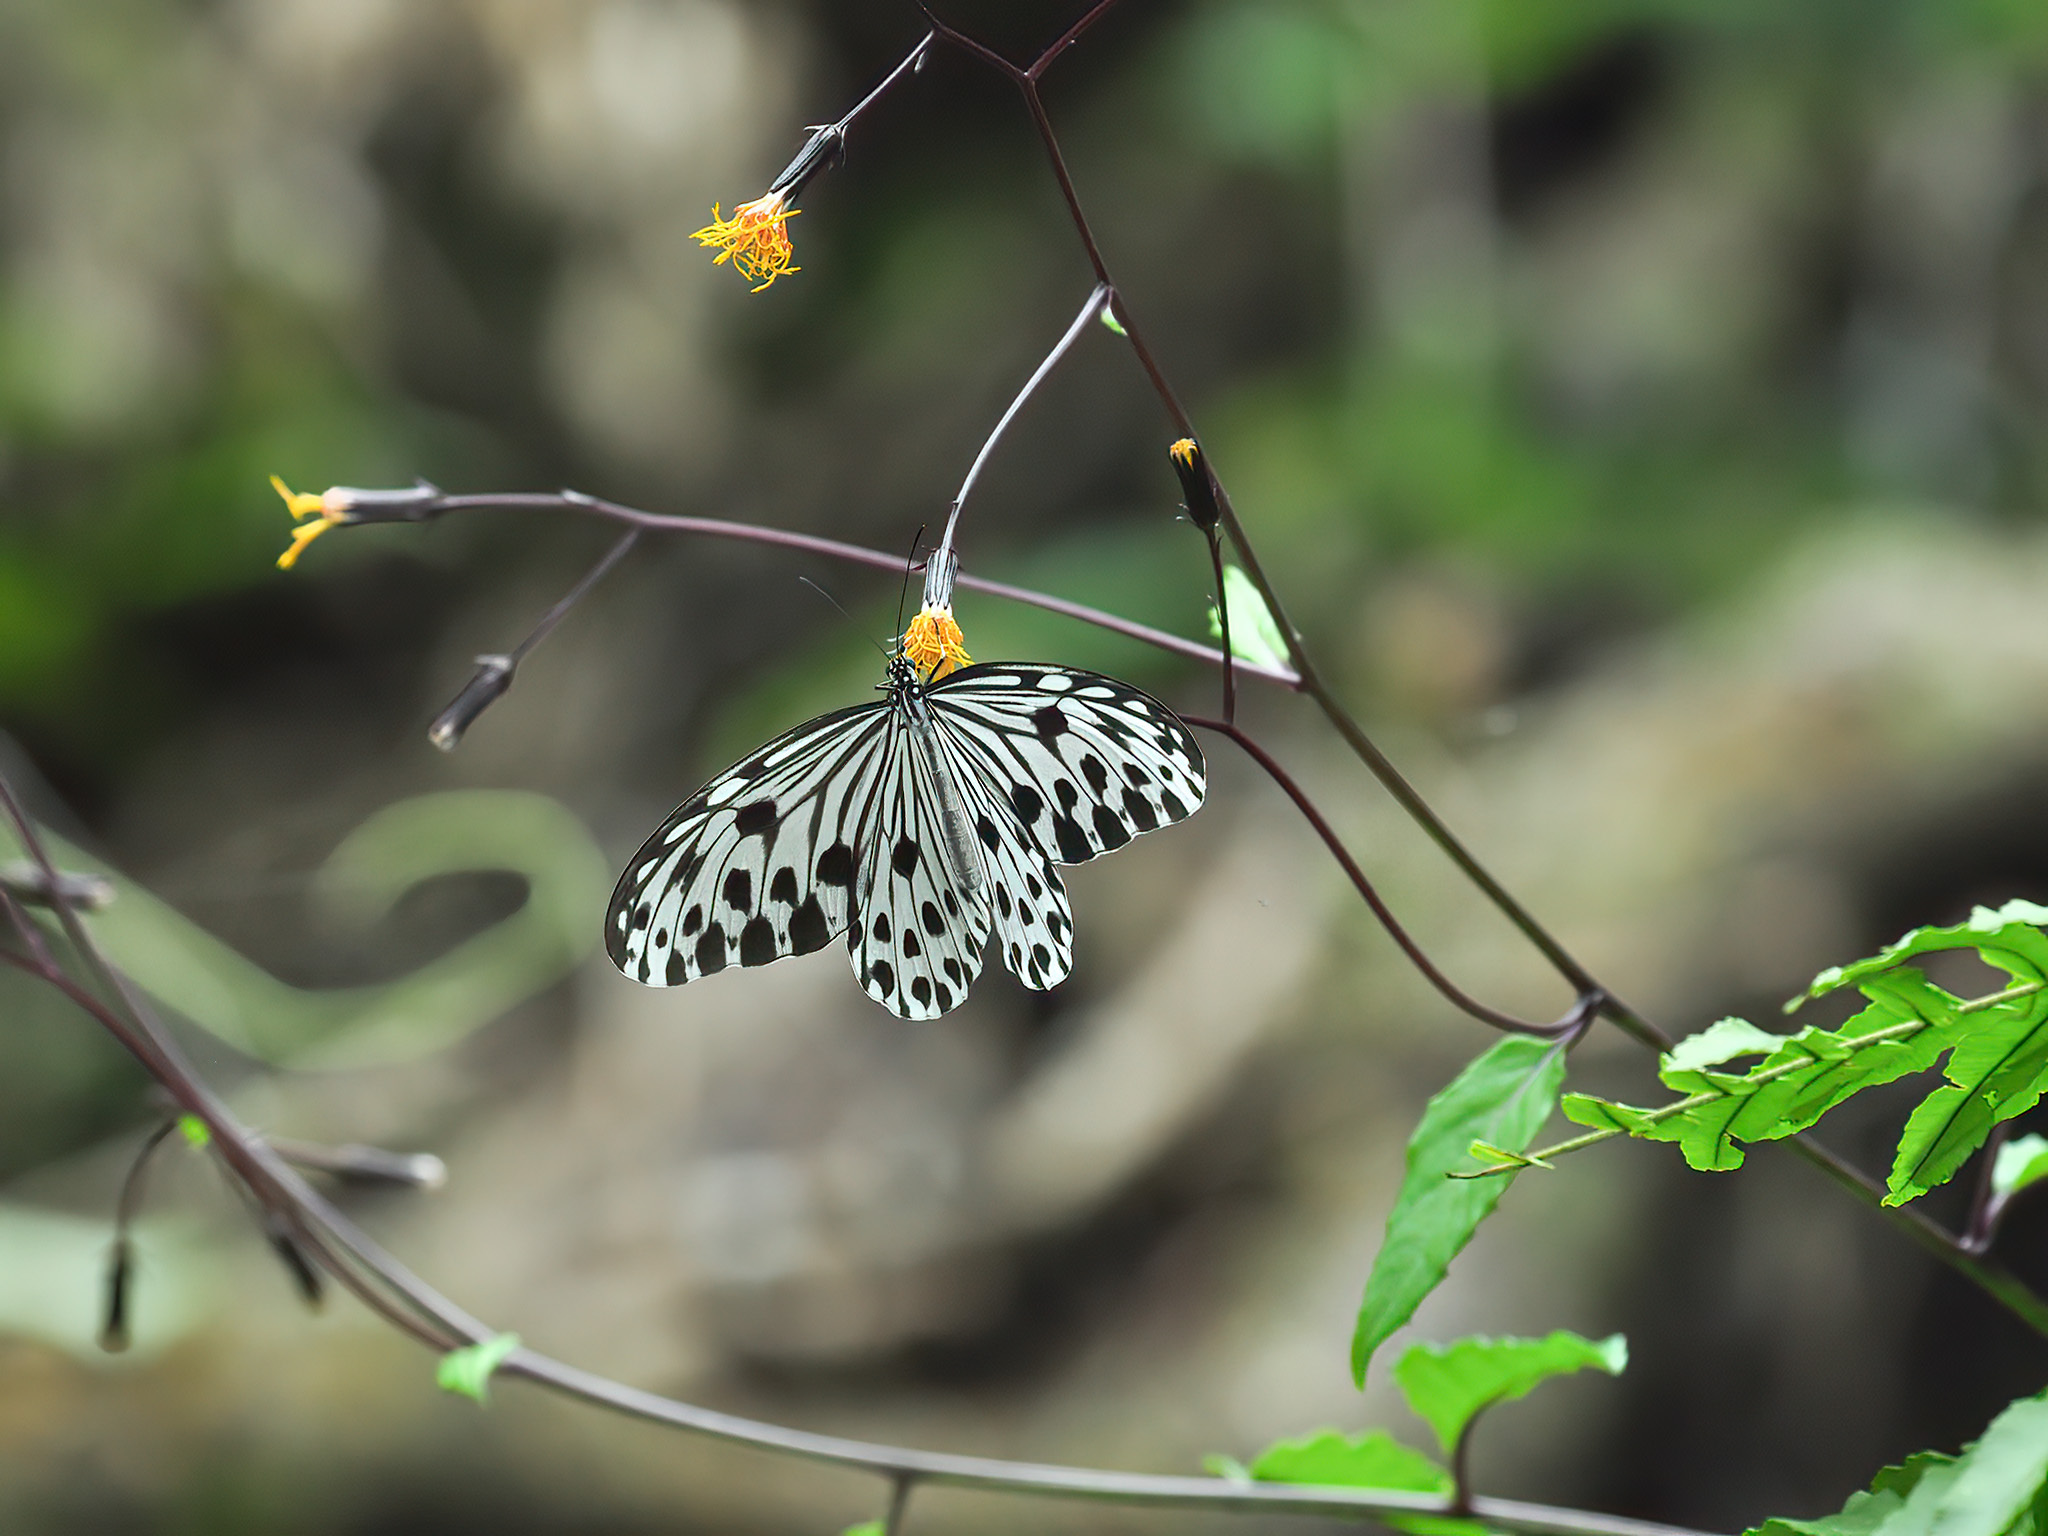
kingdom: Animalia
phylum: Arthropoda
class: Insecta
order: Lepidoptera
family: Nymphalidae
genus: Ideopsis
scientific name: Ideopsis gaura
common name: Smaller wood nymph
